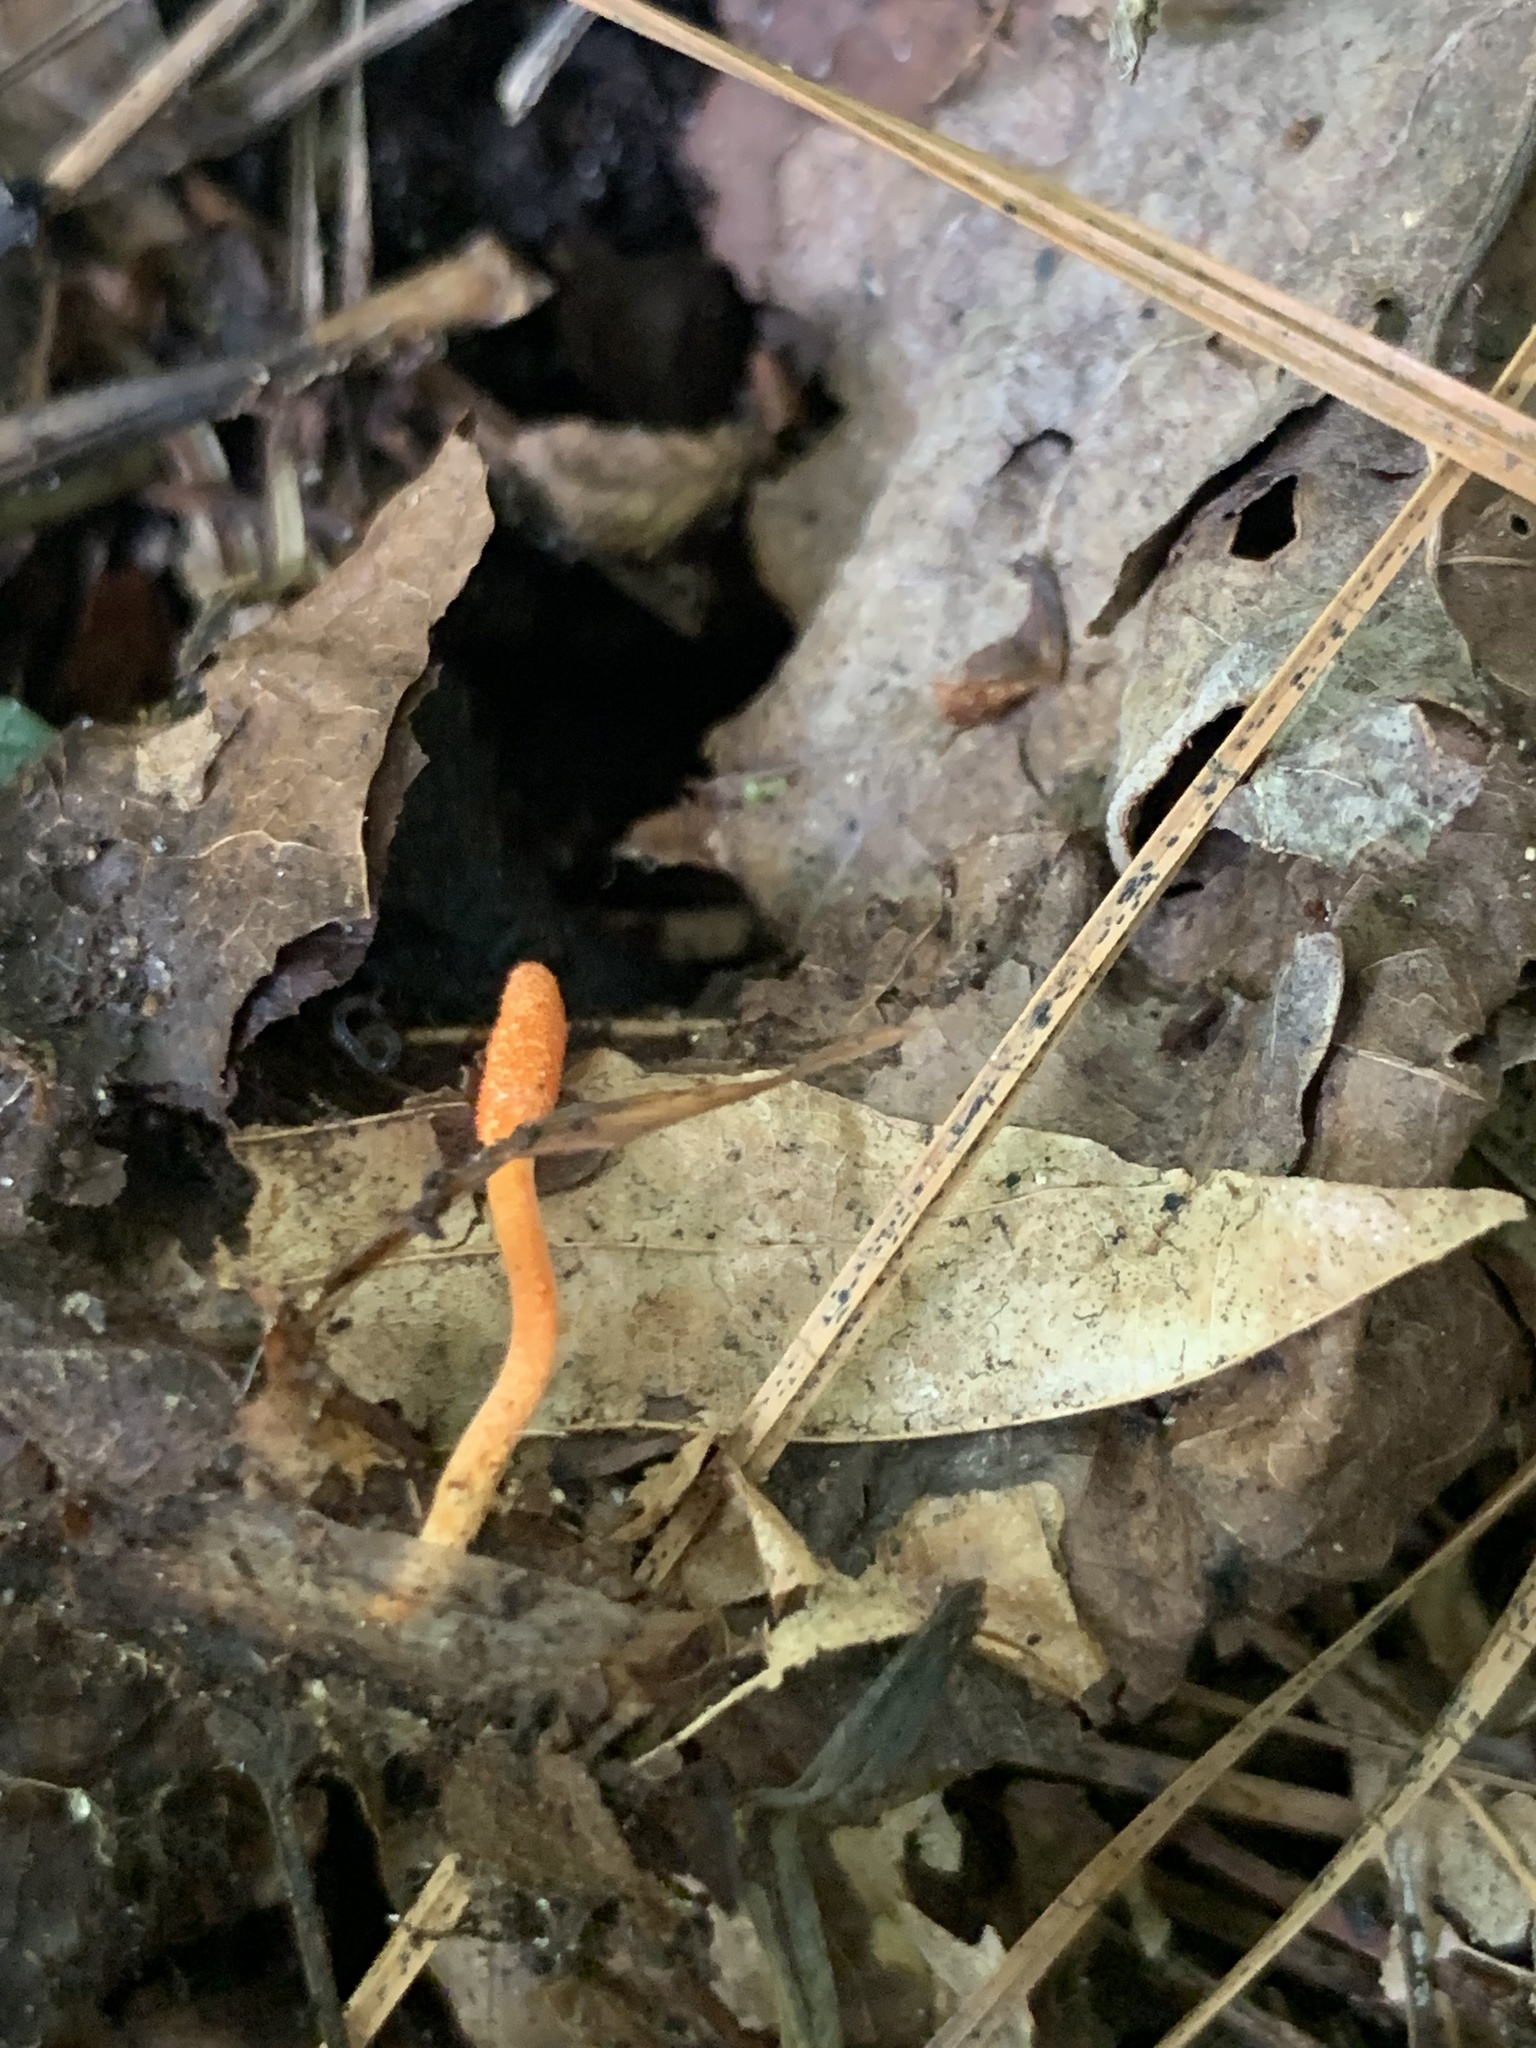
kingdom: Fungi
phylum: Ascomycota
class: Sordariomycetes
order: Hypocreales
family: Cordycipitaceae
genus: Cordyceps
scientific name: Cordyceps militaris
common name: Scarlet caterpillar fungus
